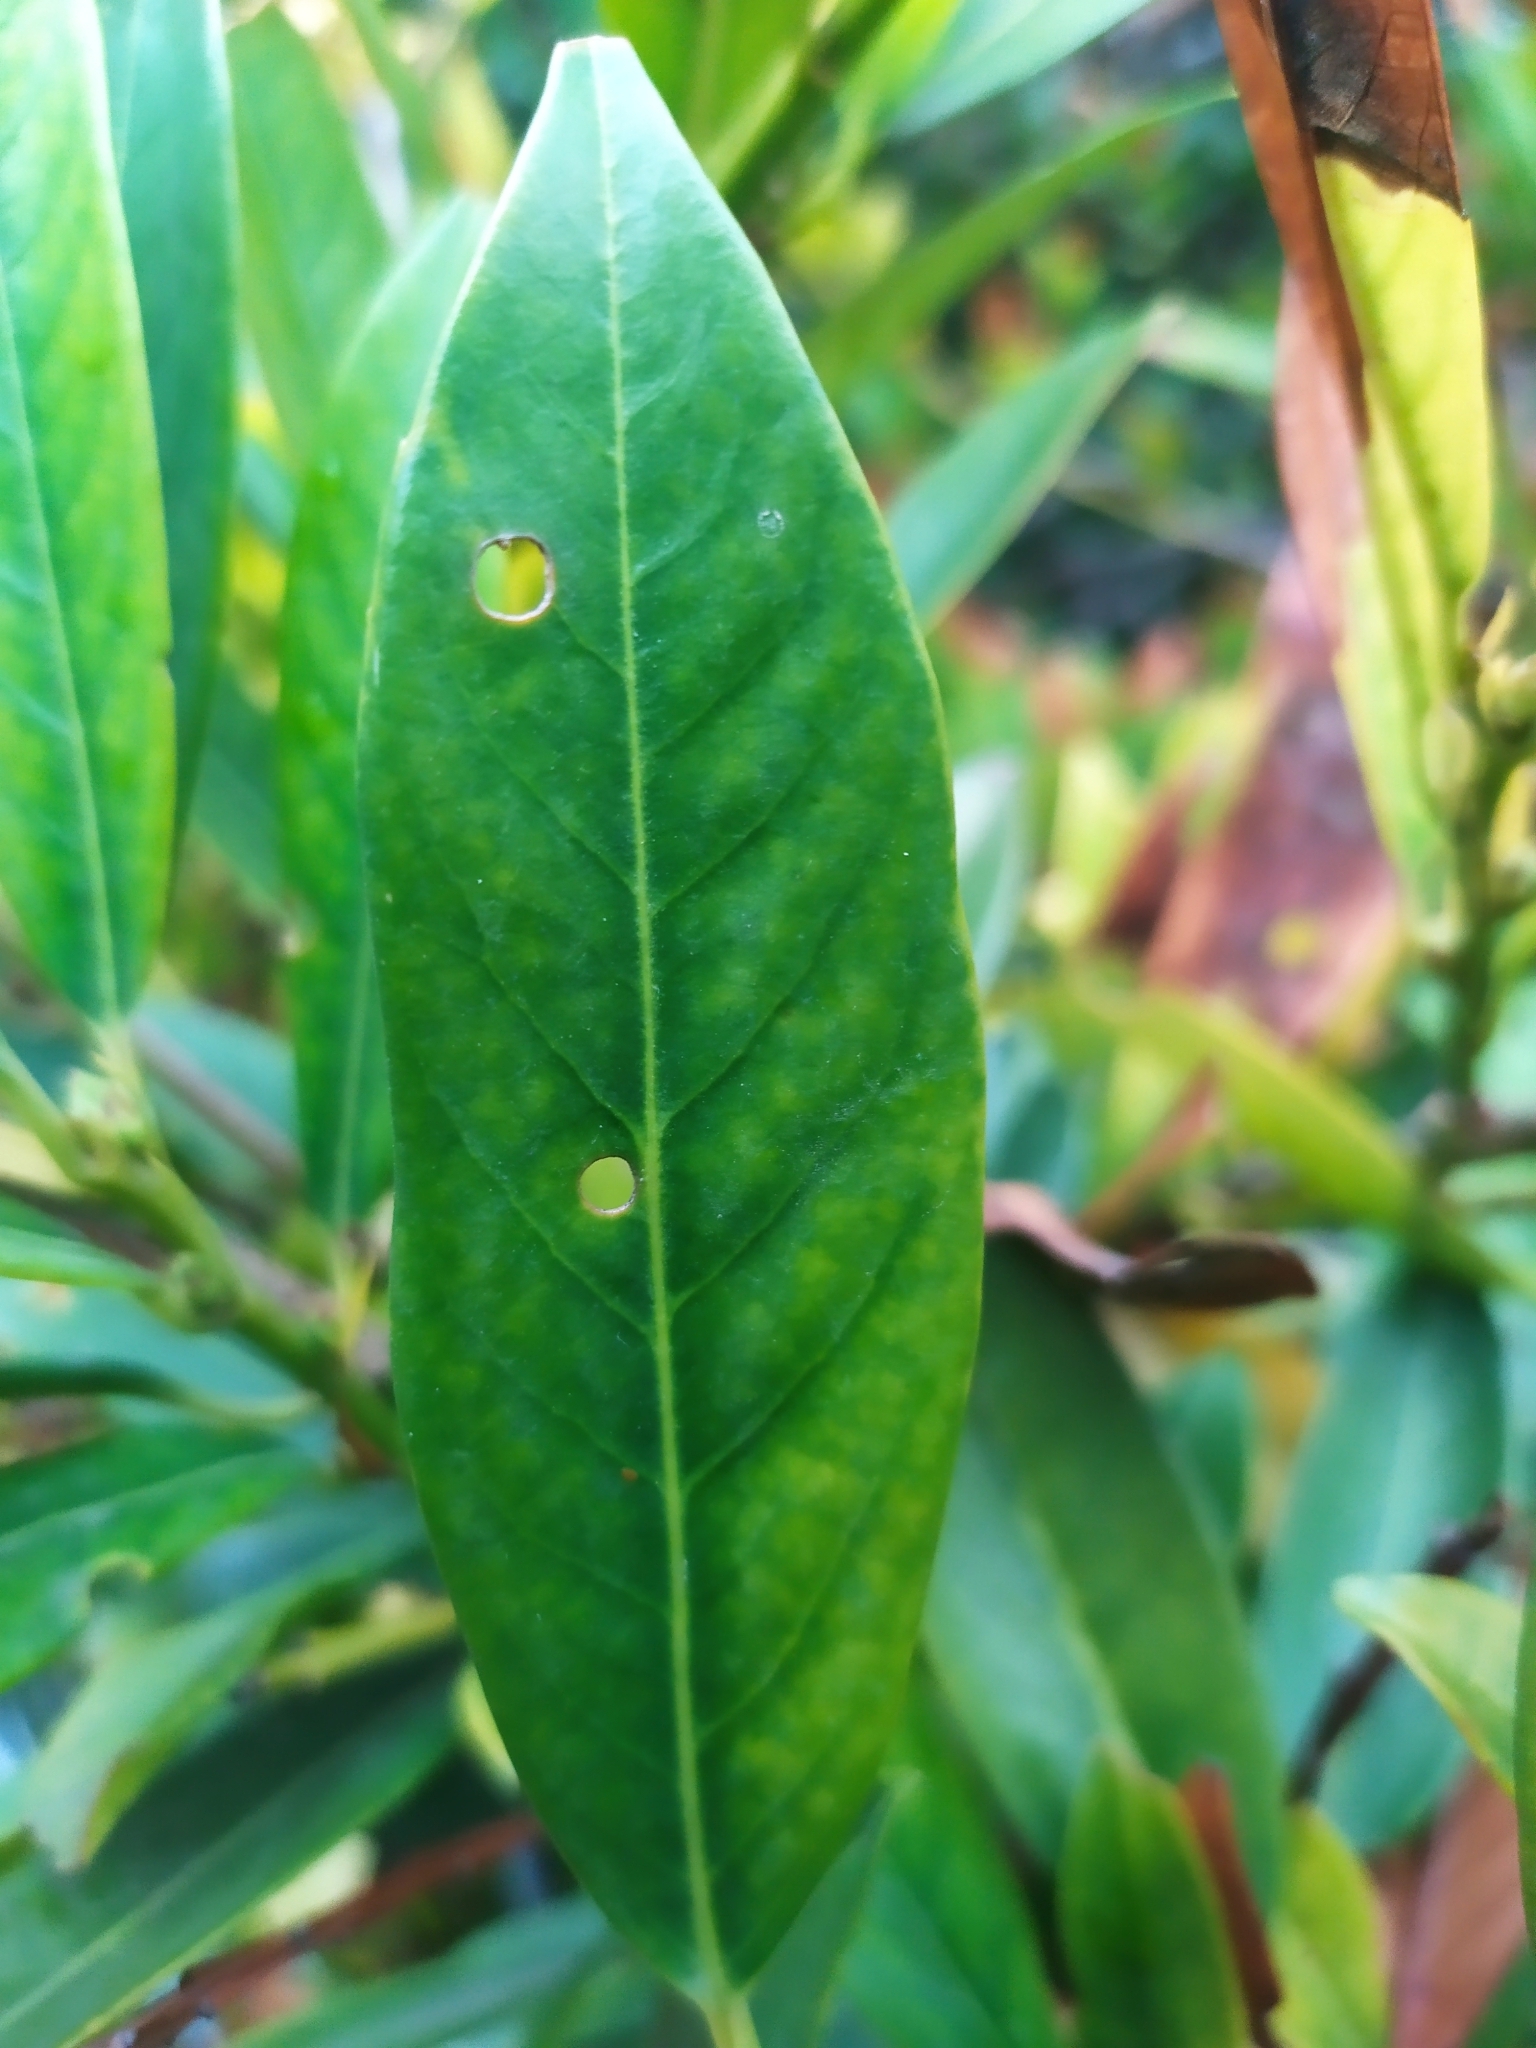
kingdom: Fungi
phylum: Ascomycota
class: Dothideomycetes
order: Mycosphaerellales
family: Mycosphaerellaceae
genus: Stigmina
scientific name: Stigmina carpophila
